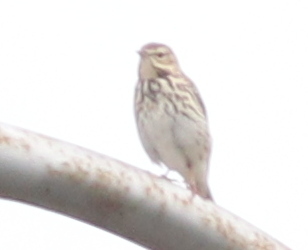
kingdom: Animalia
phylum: Chordata
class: Aves
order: Passeriformes
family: Motacillidae
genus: Anthus
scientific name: Anthus trivialis
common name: Tree pipit
